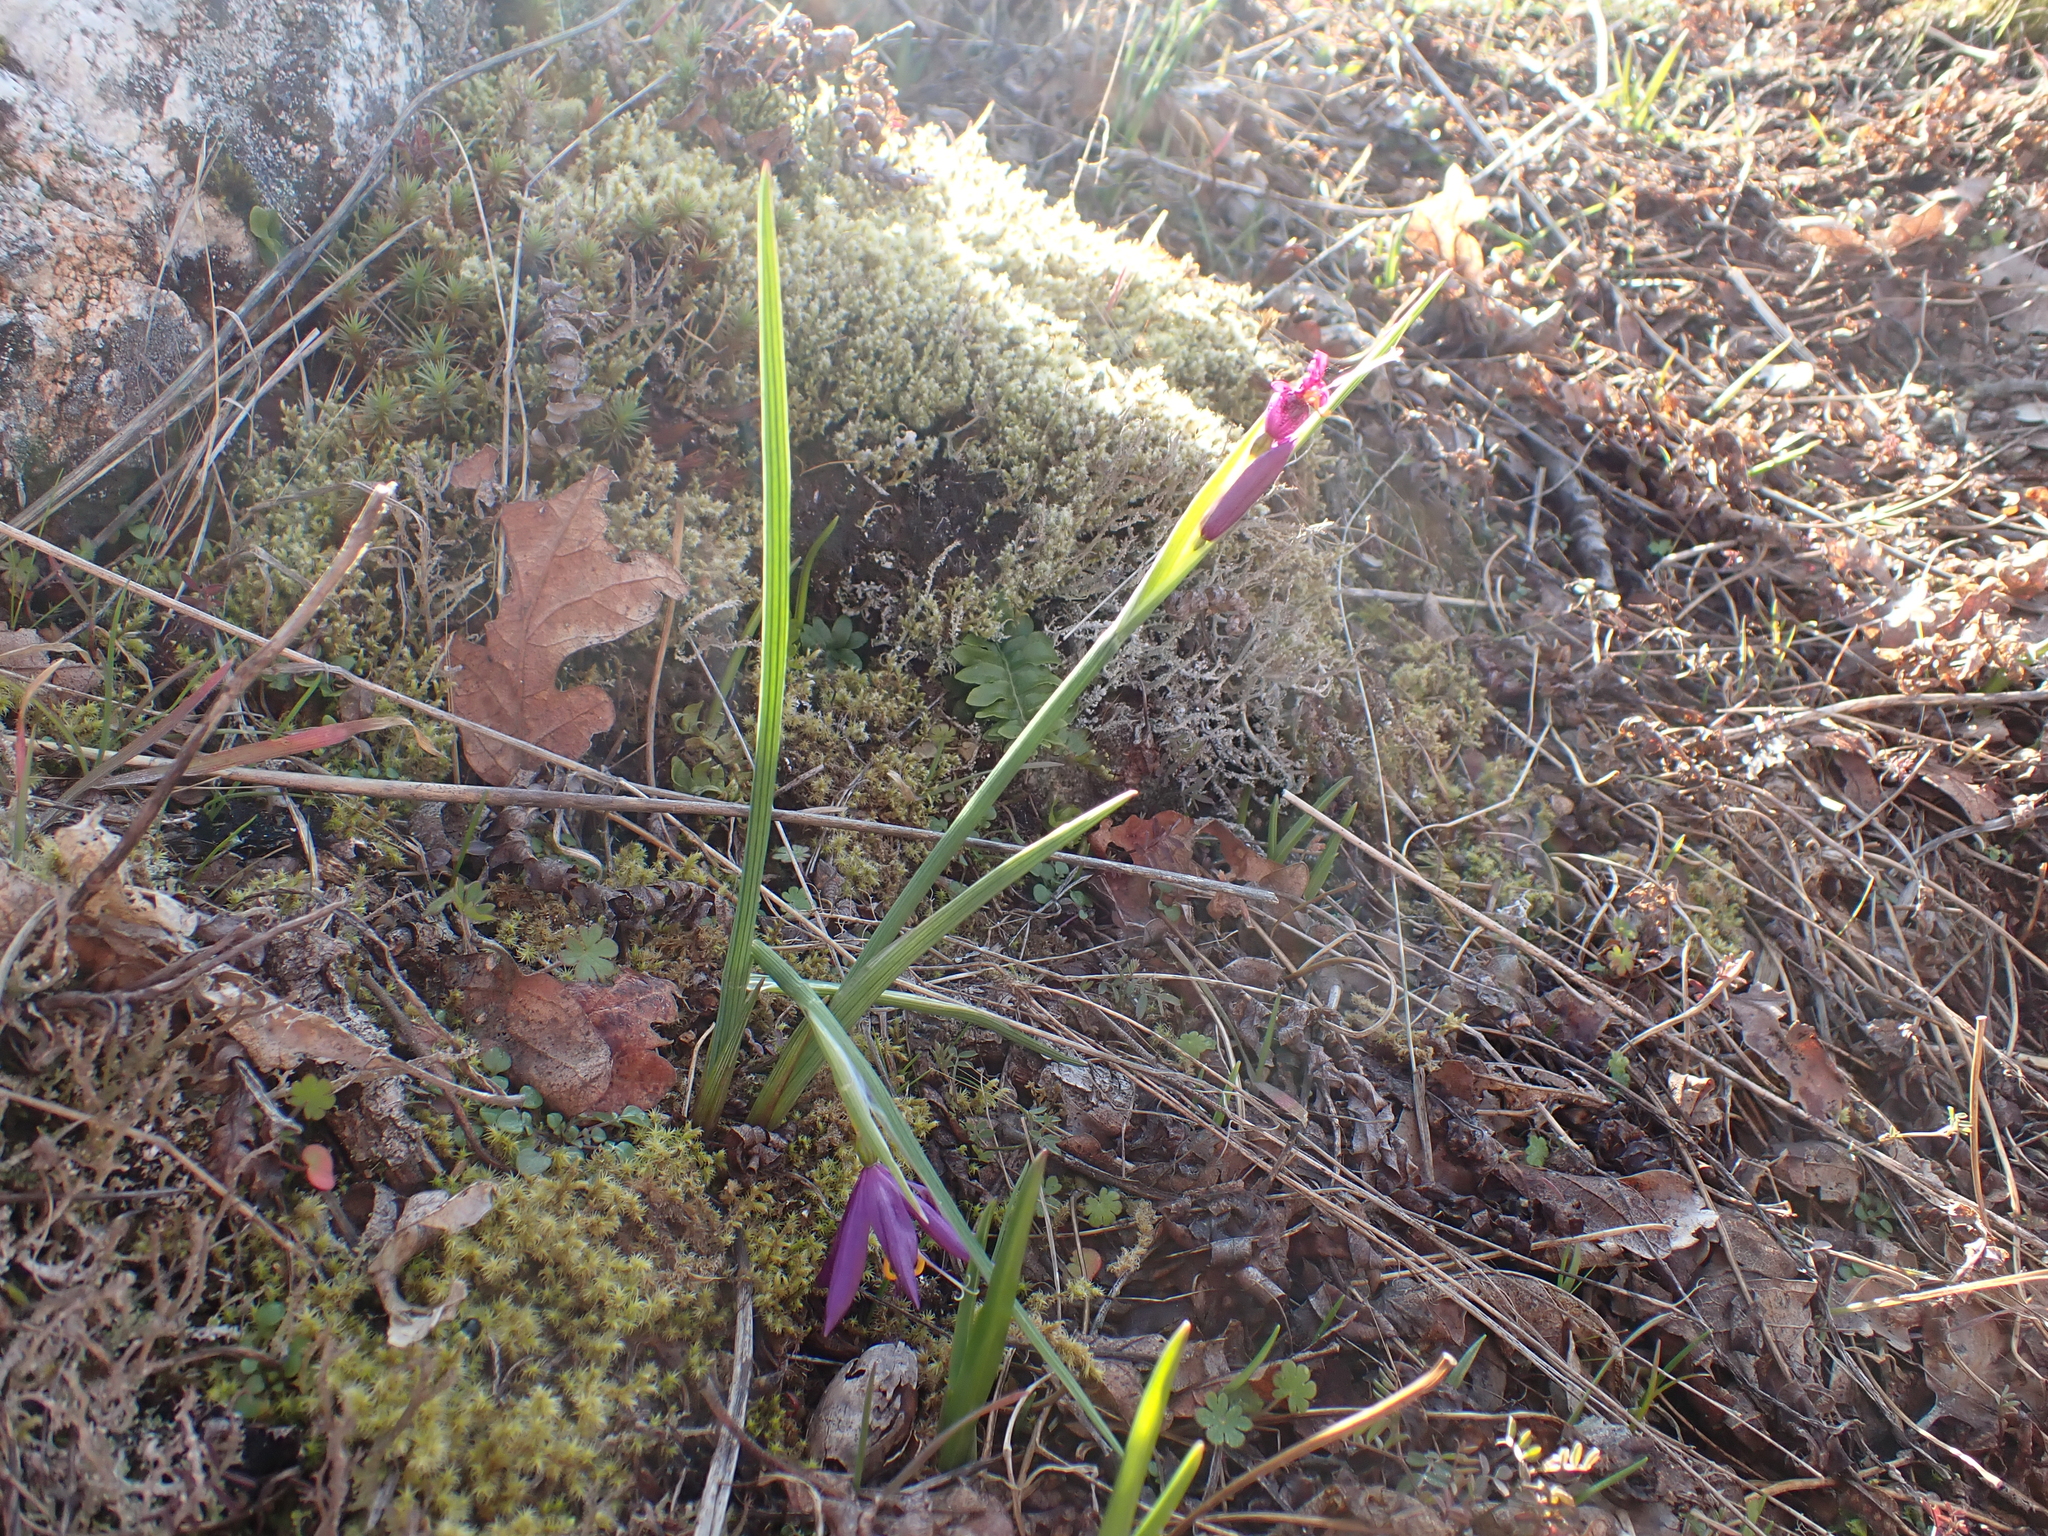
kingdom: Plantae
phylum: Tracheophyta
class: Liliopsida
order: Asparagales
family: Iridaceae
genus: Olsynium
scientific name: Olsynium douglasii
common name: Douglas' grasswidow
